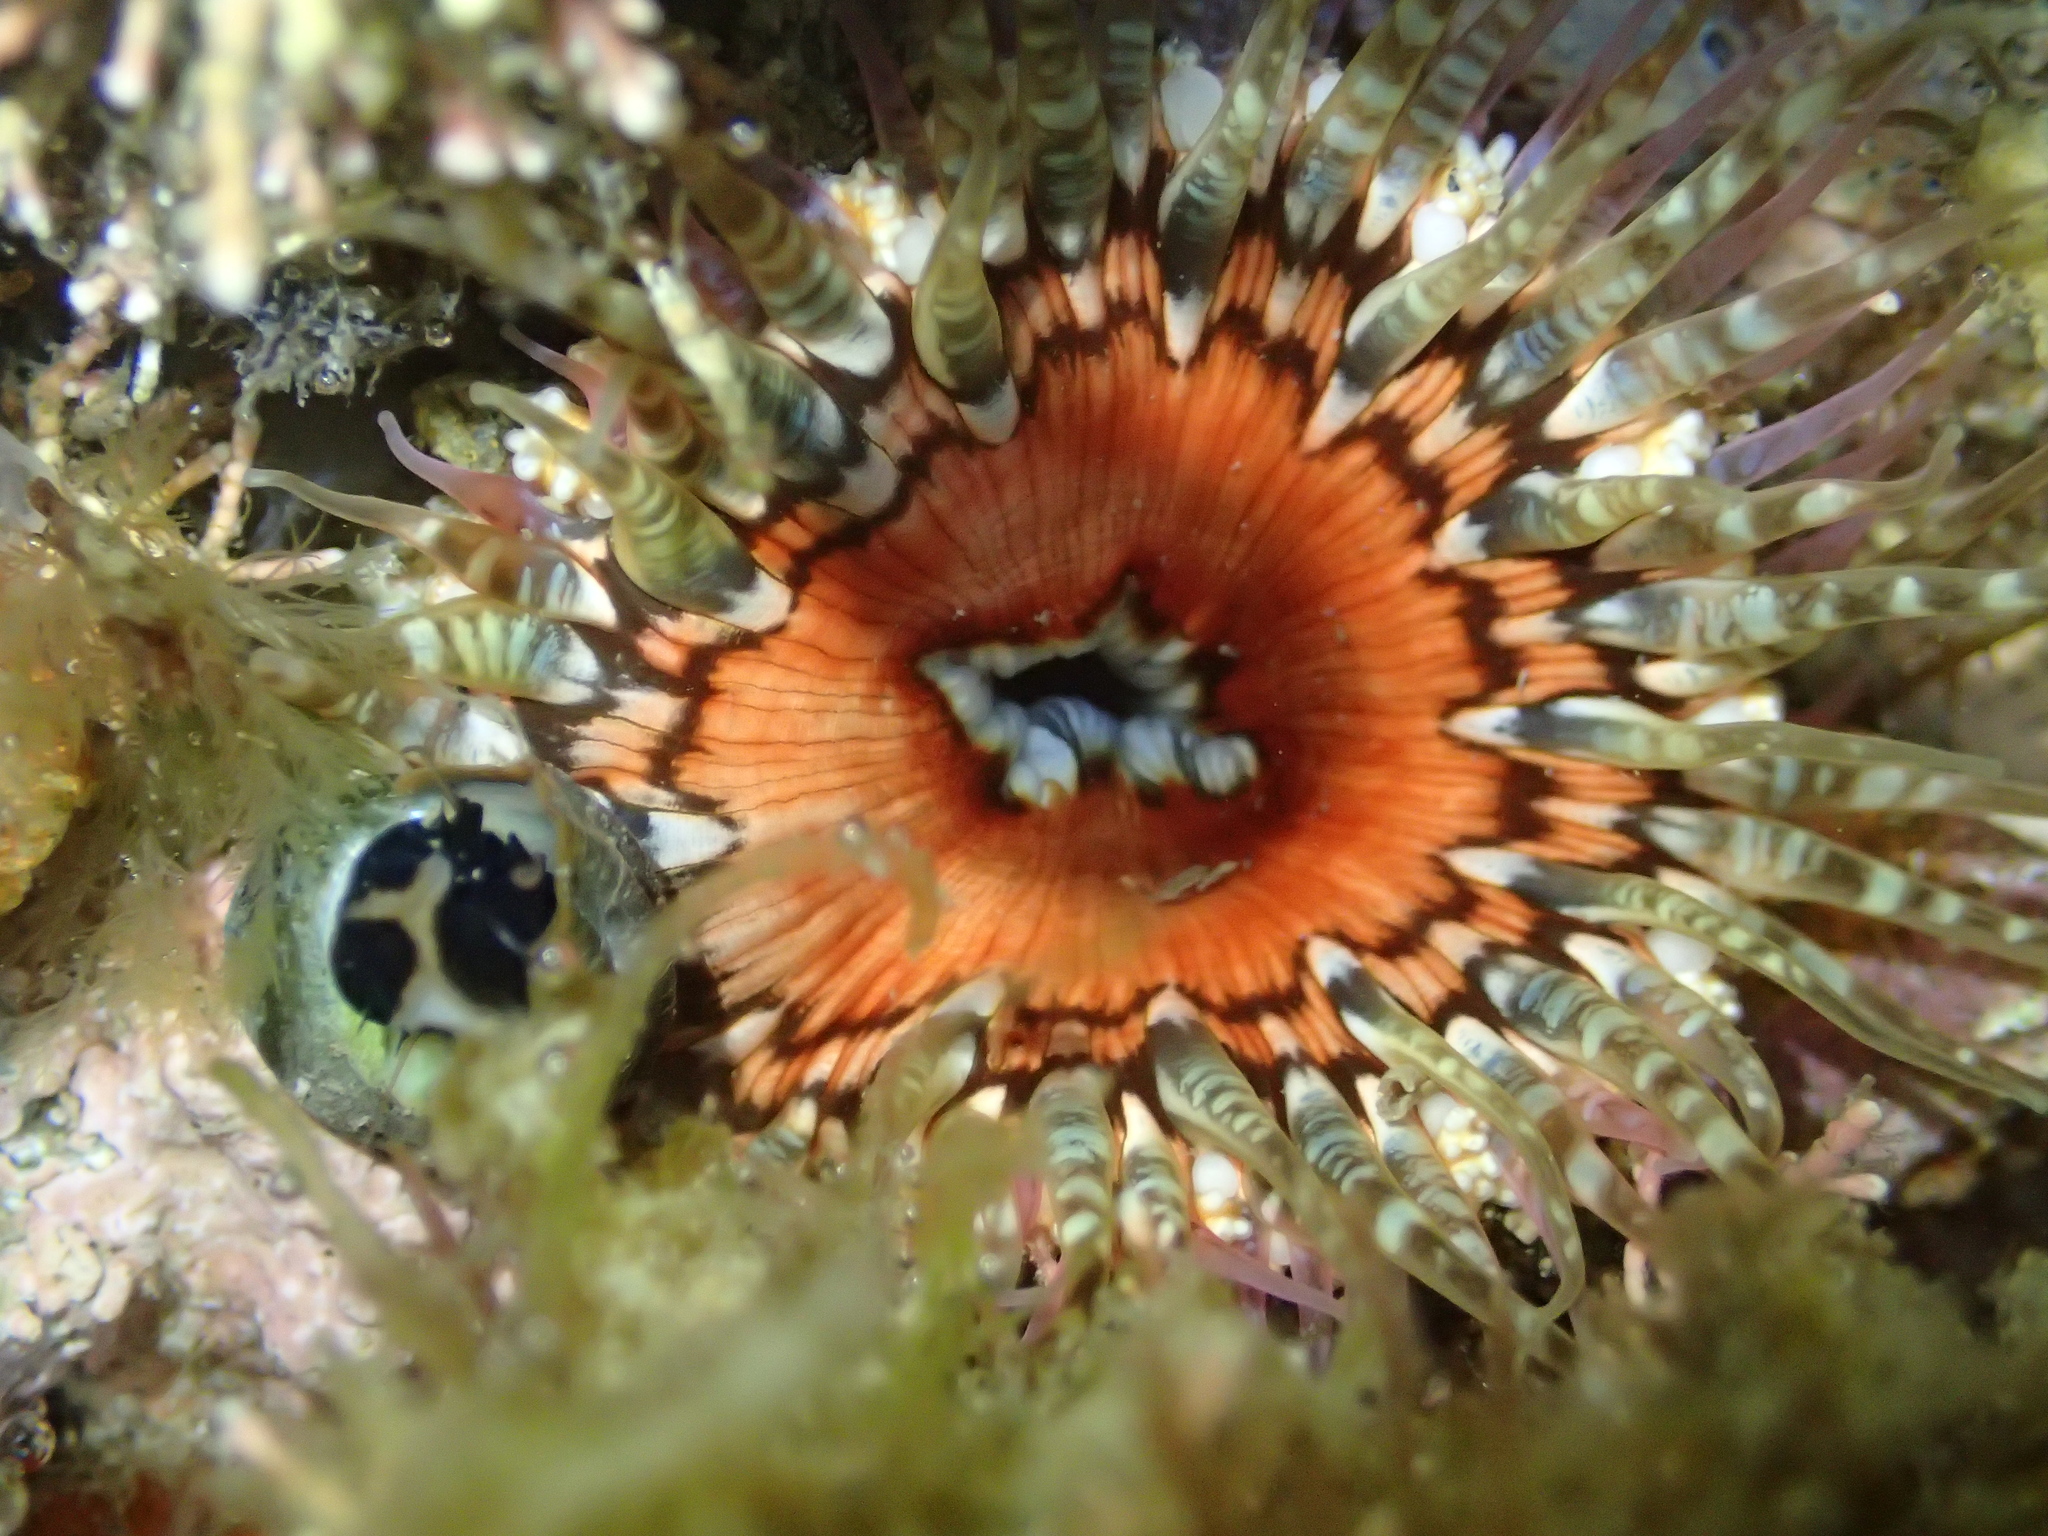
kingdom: Animalia
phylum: Cnidaria
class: Anthozoa
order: Actiniaria
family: Actiniidae
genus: Oulactis
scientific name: Oulactis muscosa
